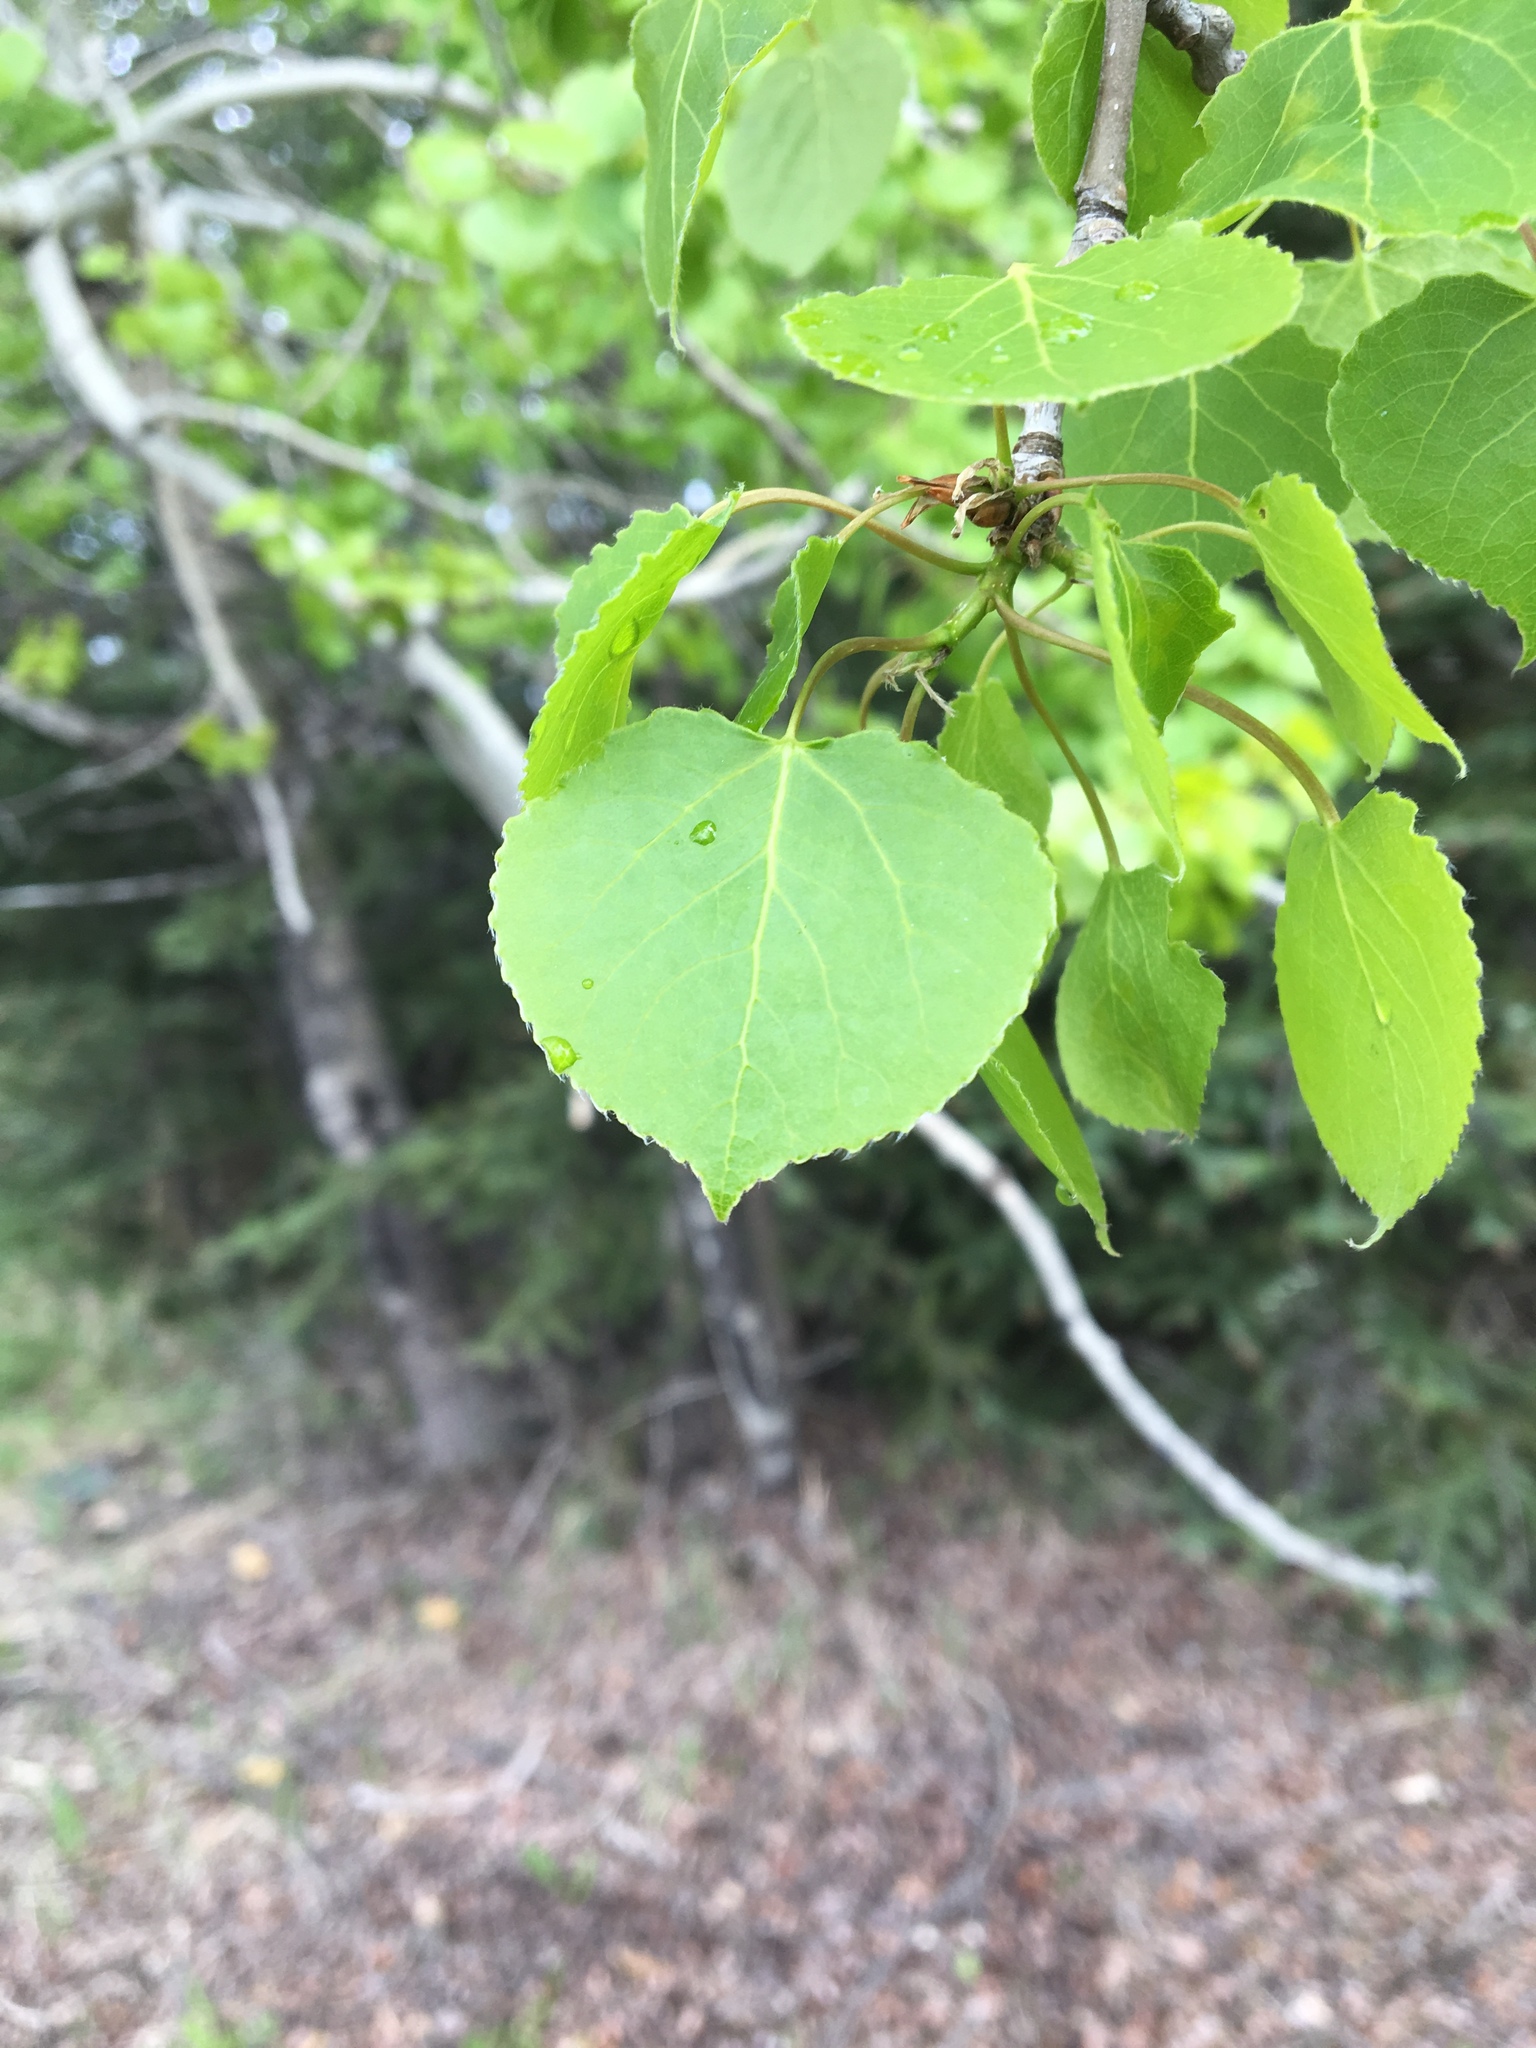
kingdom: Plantae
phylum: Tracheophyta
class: Magnoliopsida
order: Malpighiales
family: Salicaceae
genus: Populus
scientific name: Populus tremuloides
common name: Quaking aspen
